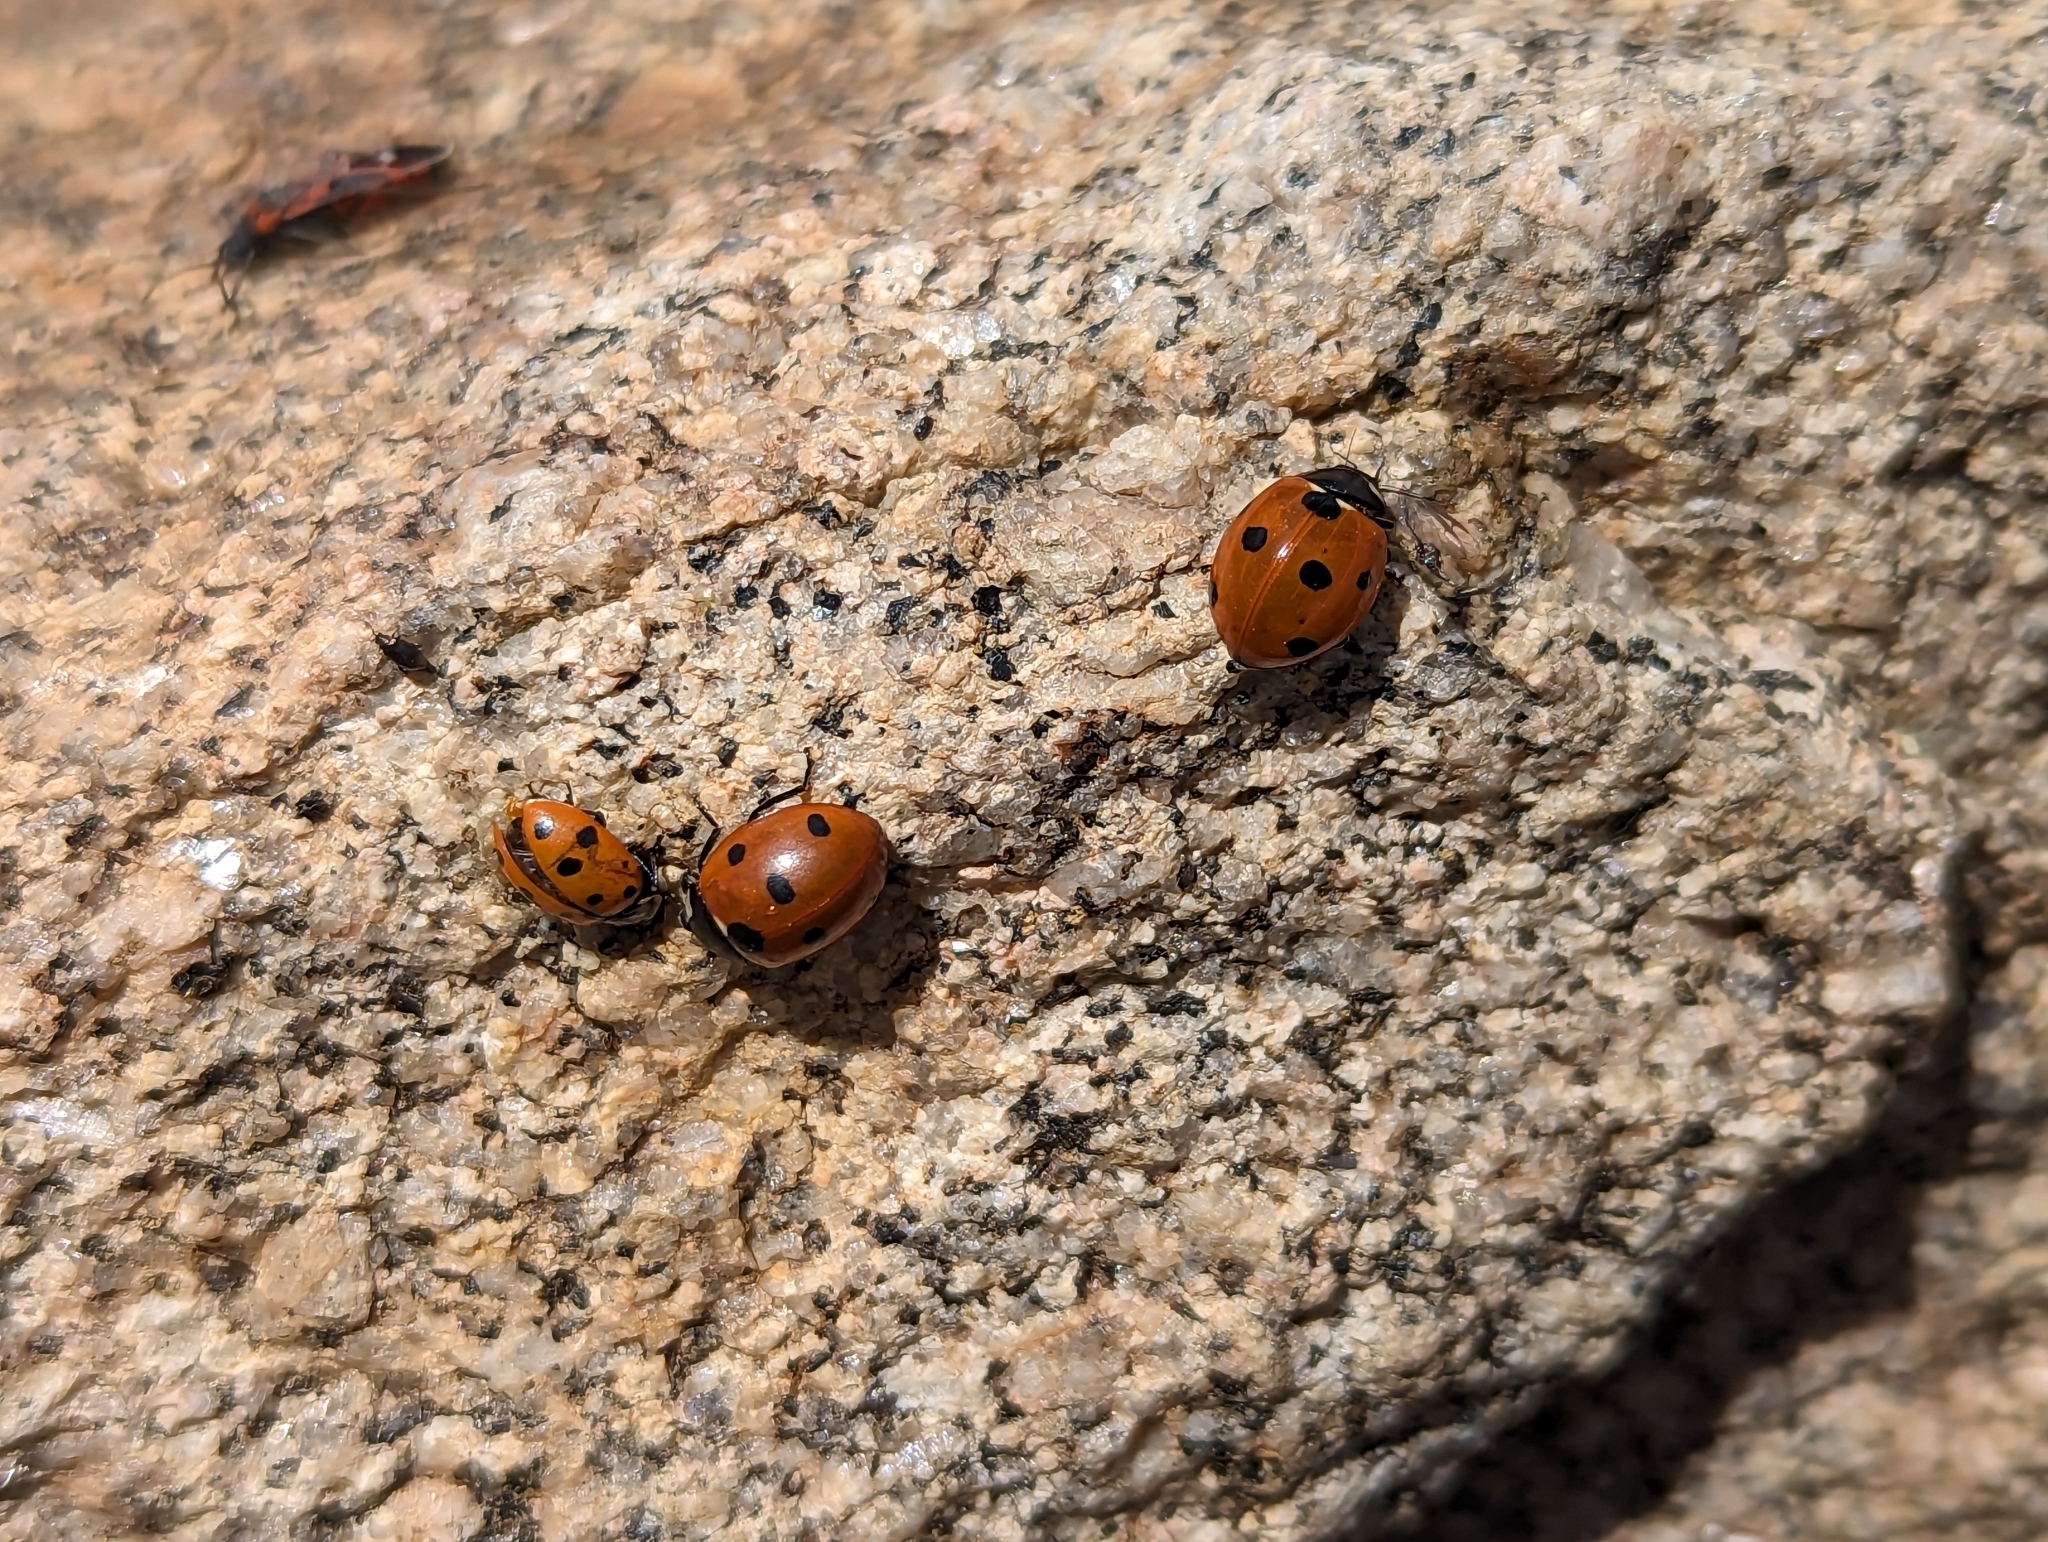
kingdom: Animalia
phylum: Arthropoda
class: Insecta
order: Coleoptera
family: Coccinellidae
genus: Coccinella
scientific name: Coccinella septempunctata
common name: Sevenspotted lady beetle
